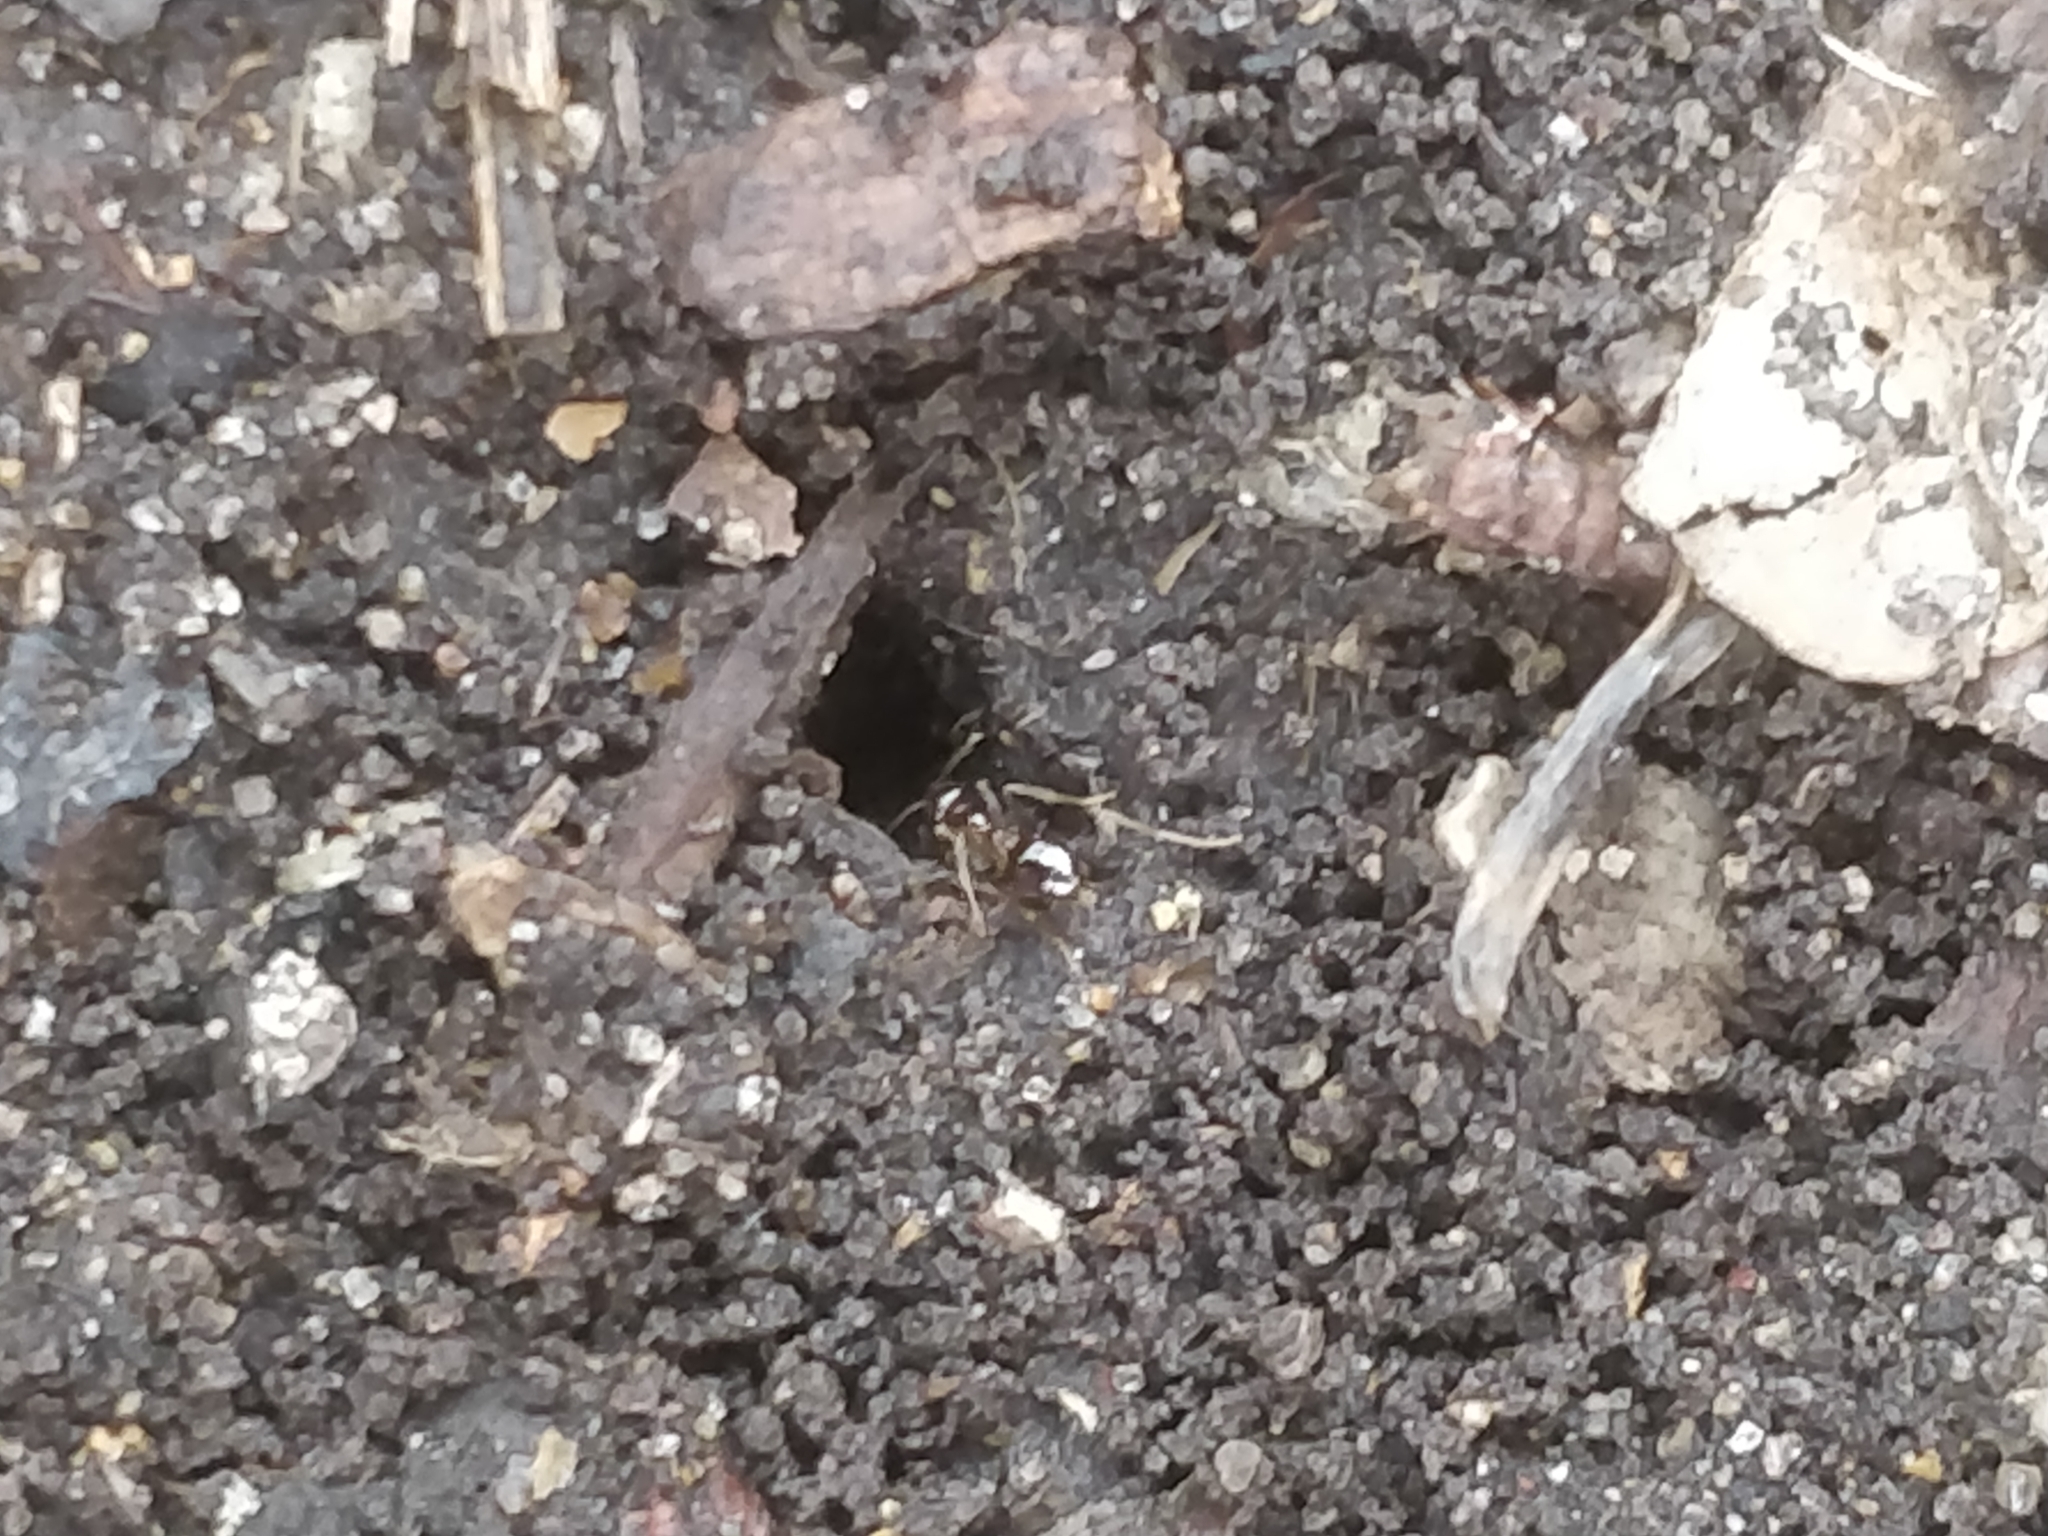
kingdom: Animalia
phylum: Arthropoda
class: Insecta
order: Hymenoptera
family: Formicidae
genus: Prenolepis
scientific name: Prenolepis imparis
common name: Small honey ant
